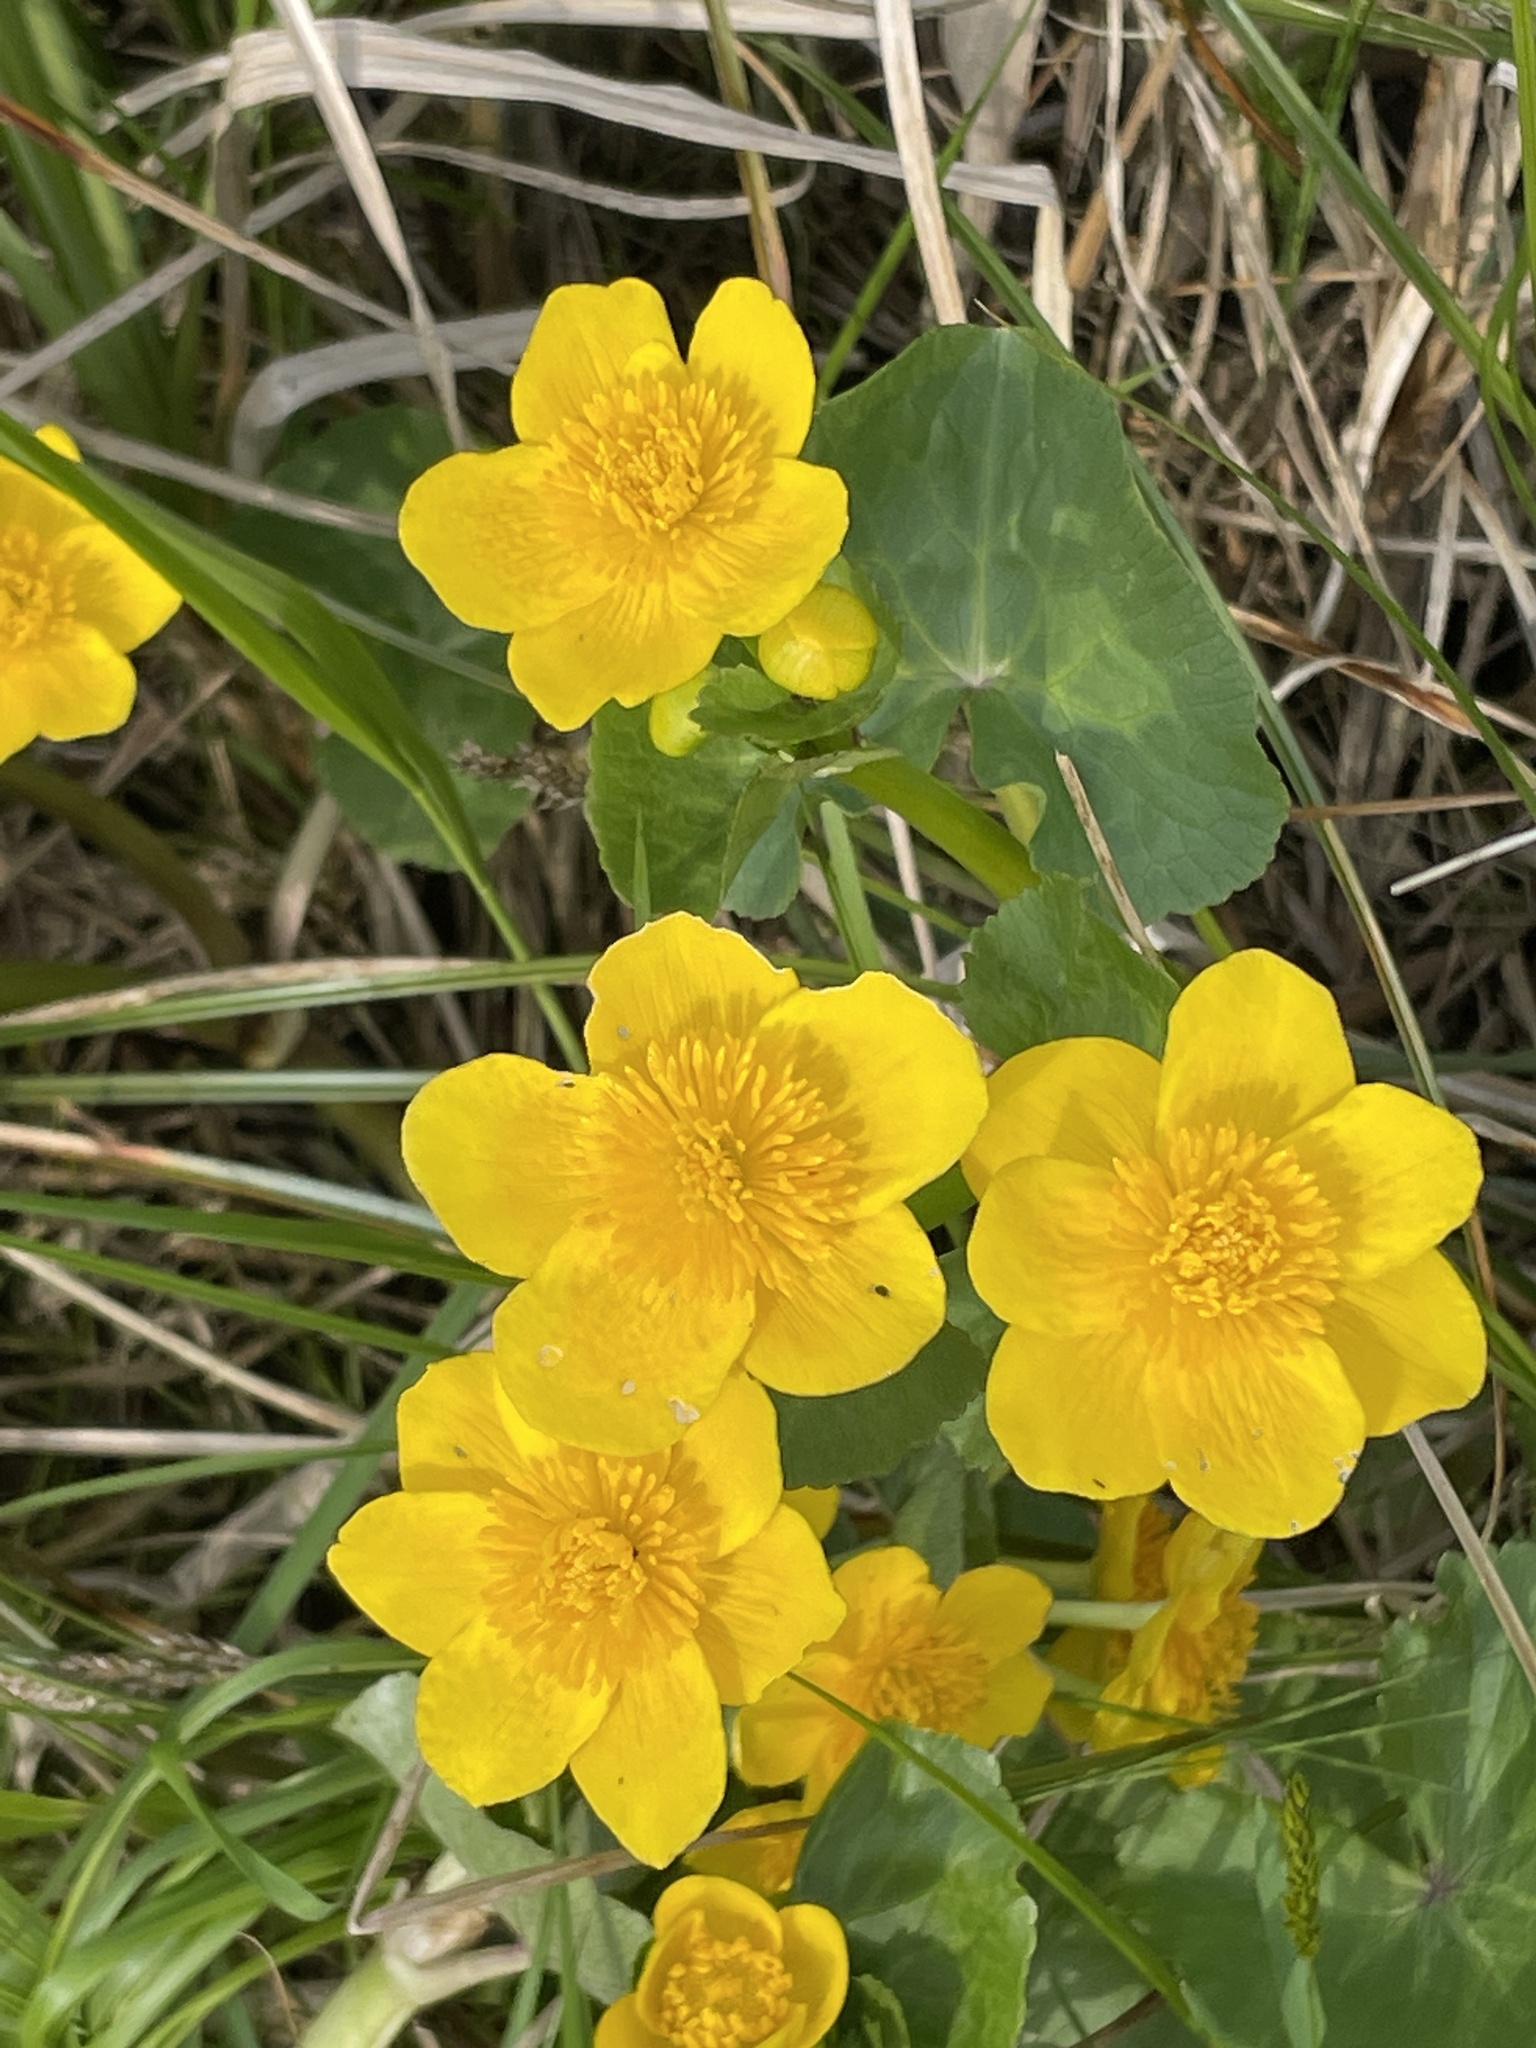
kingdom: Plantae
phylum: Tracheophyta
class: Magnoliopsida
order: Ranunculales
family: Ranunculaceae
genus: Caltha
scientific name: Caltha palustris
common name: Marsh marigold
